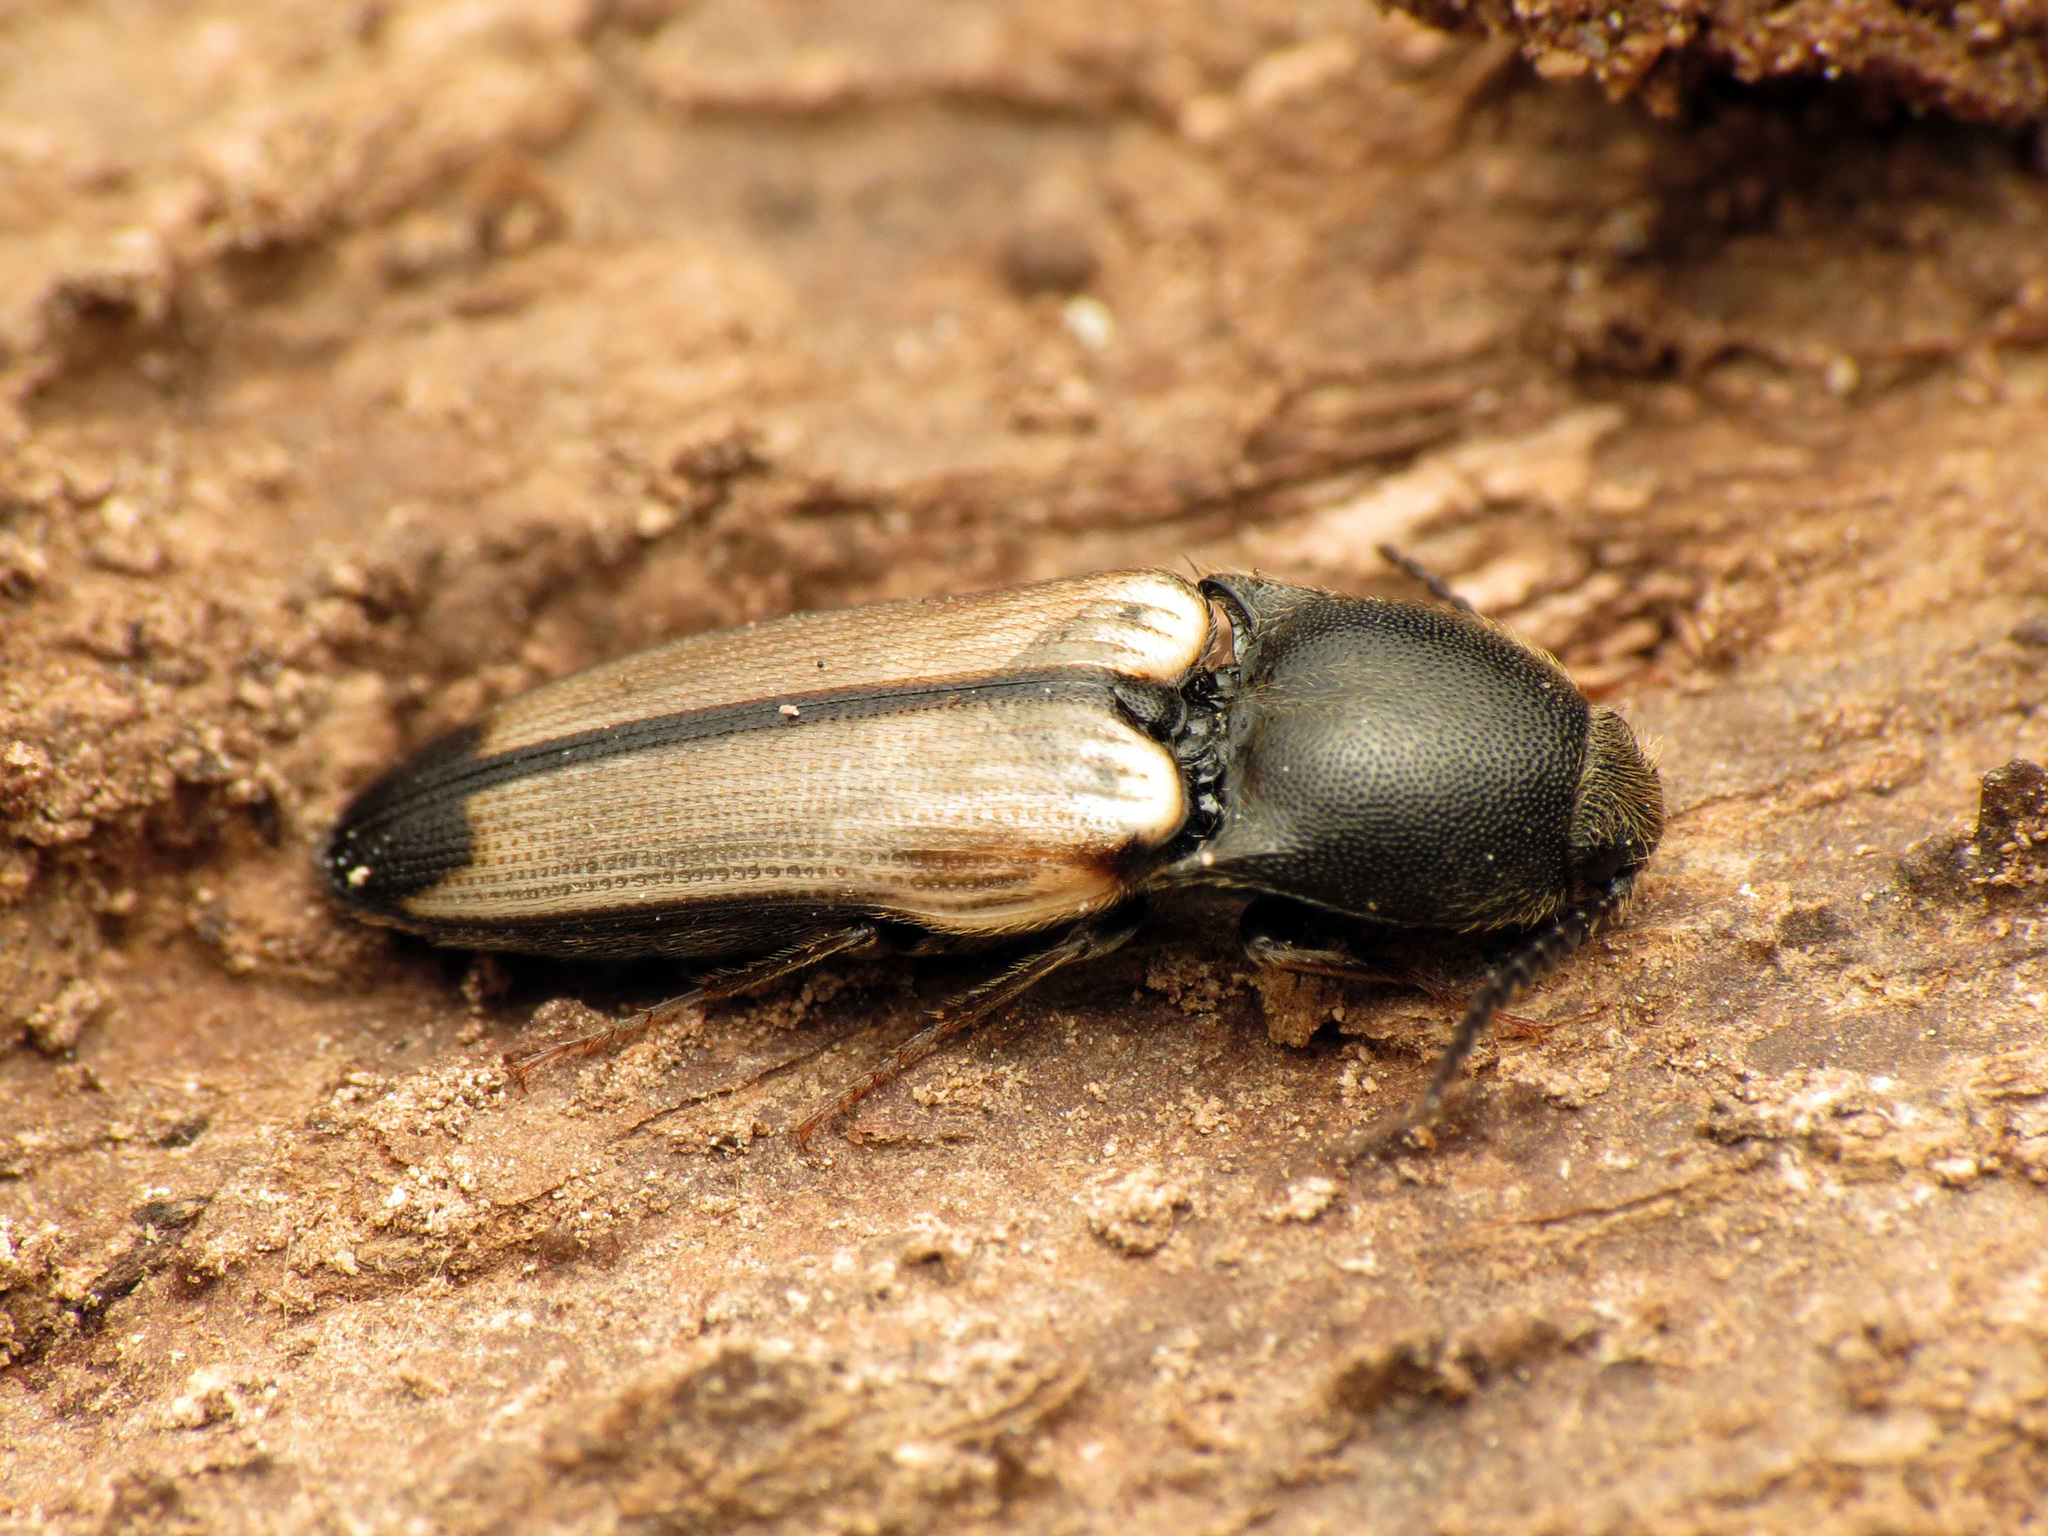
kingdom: Animalia
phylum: Arthropoda
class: Insecta
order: Coleoptera
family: Elateridae
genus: Ampedus
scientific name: Ampedus linteus
